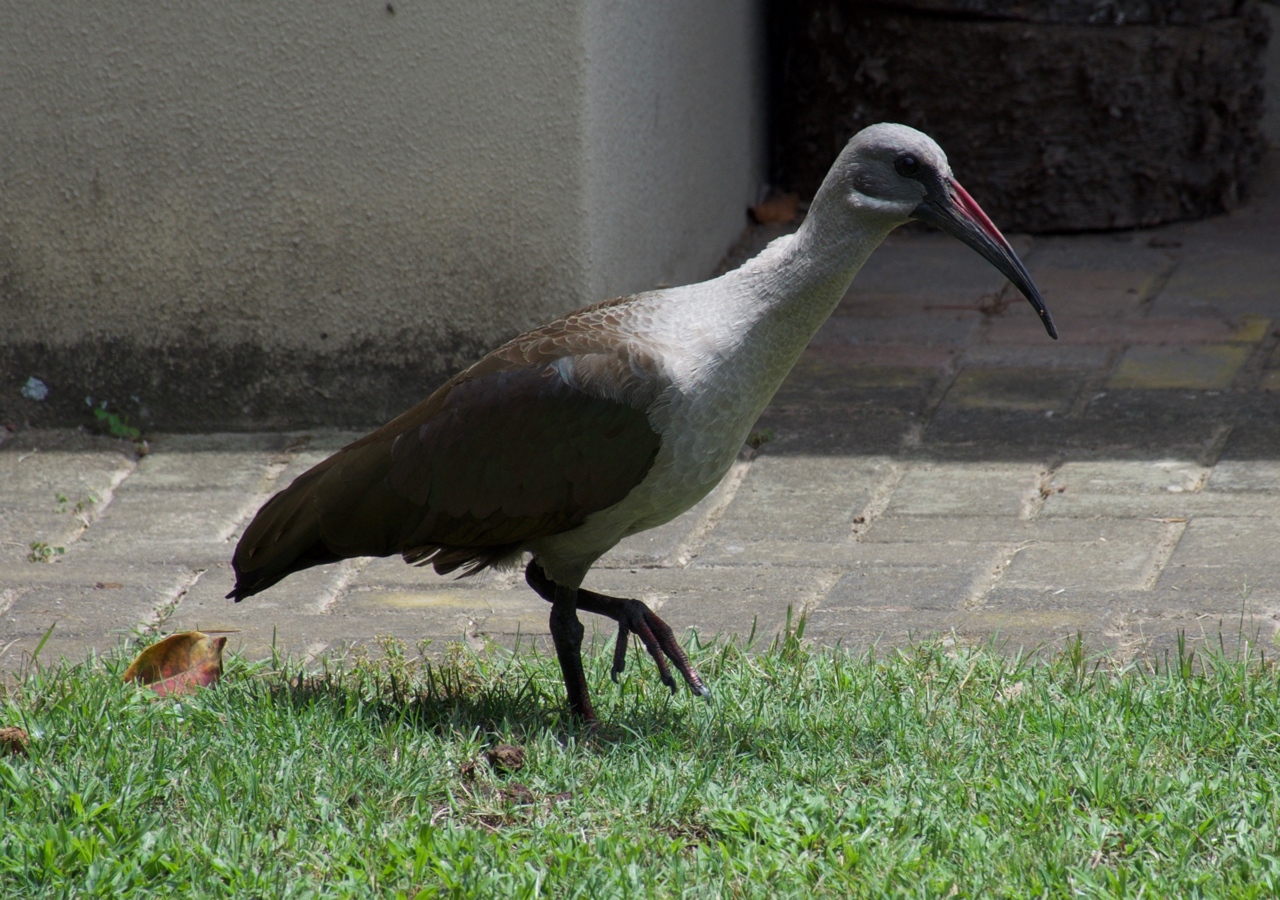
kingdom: Animalia
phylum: Chordata
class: Aves
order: Pelecaniformes
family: Threskiornithidae
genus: Bostrychia
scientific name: Bostrychia hagedash
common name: Hadada ibis
